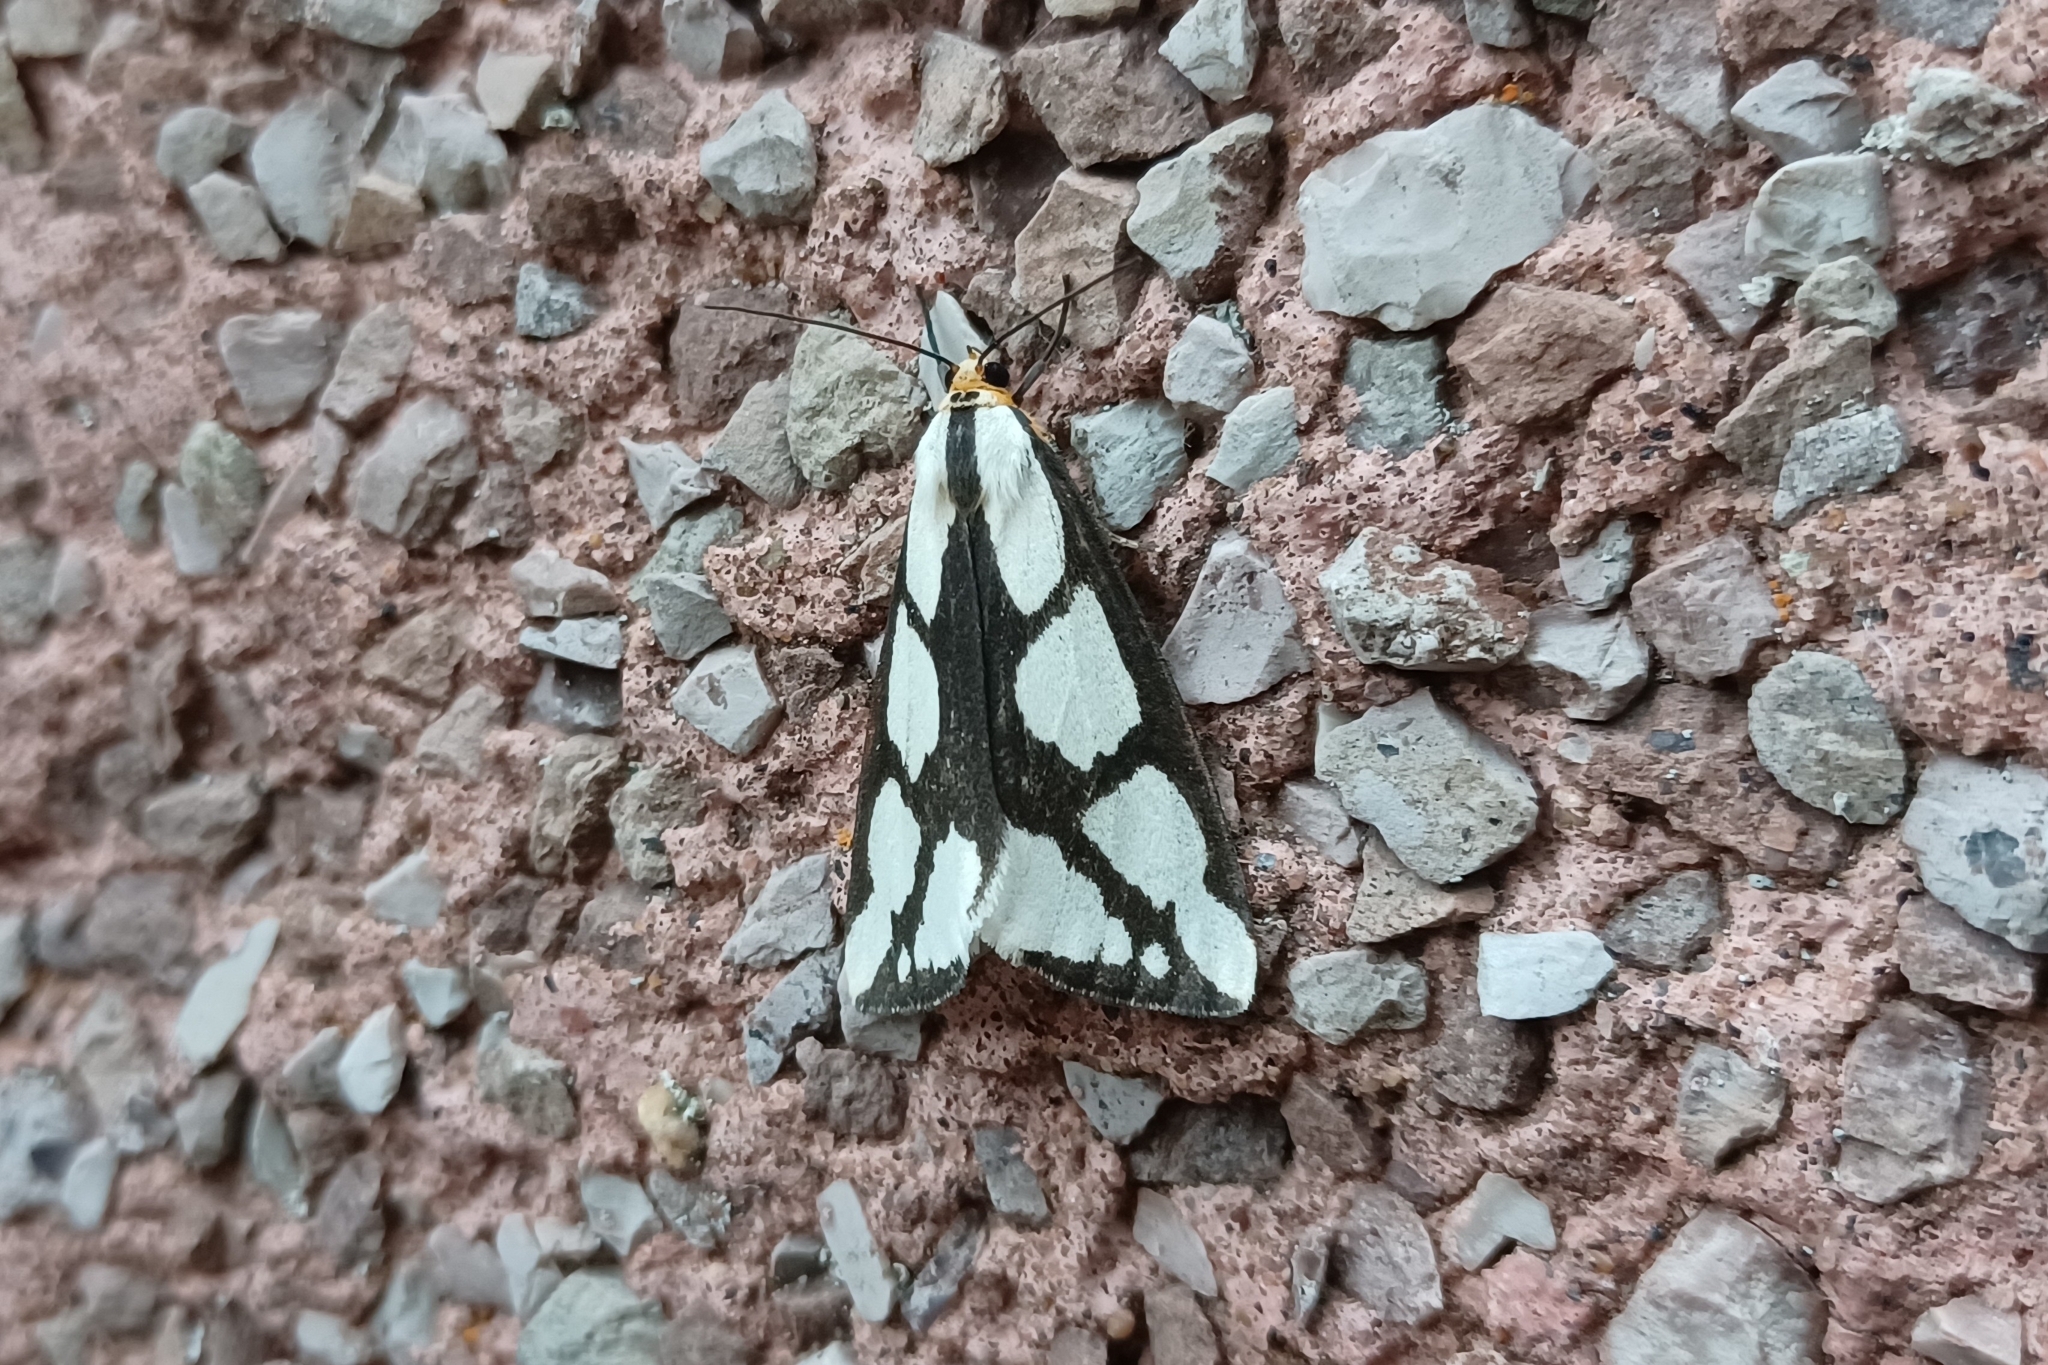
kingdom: Animalia
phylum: Arthropoda
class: Insecta
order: Lepidoptera
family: Erebidae
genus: Haploa
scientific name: Haploa lecontei
